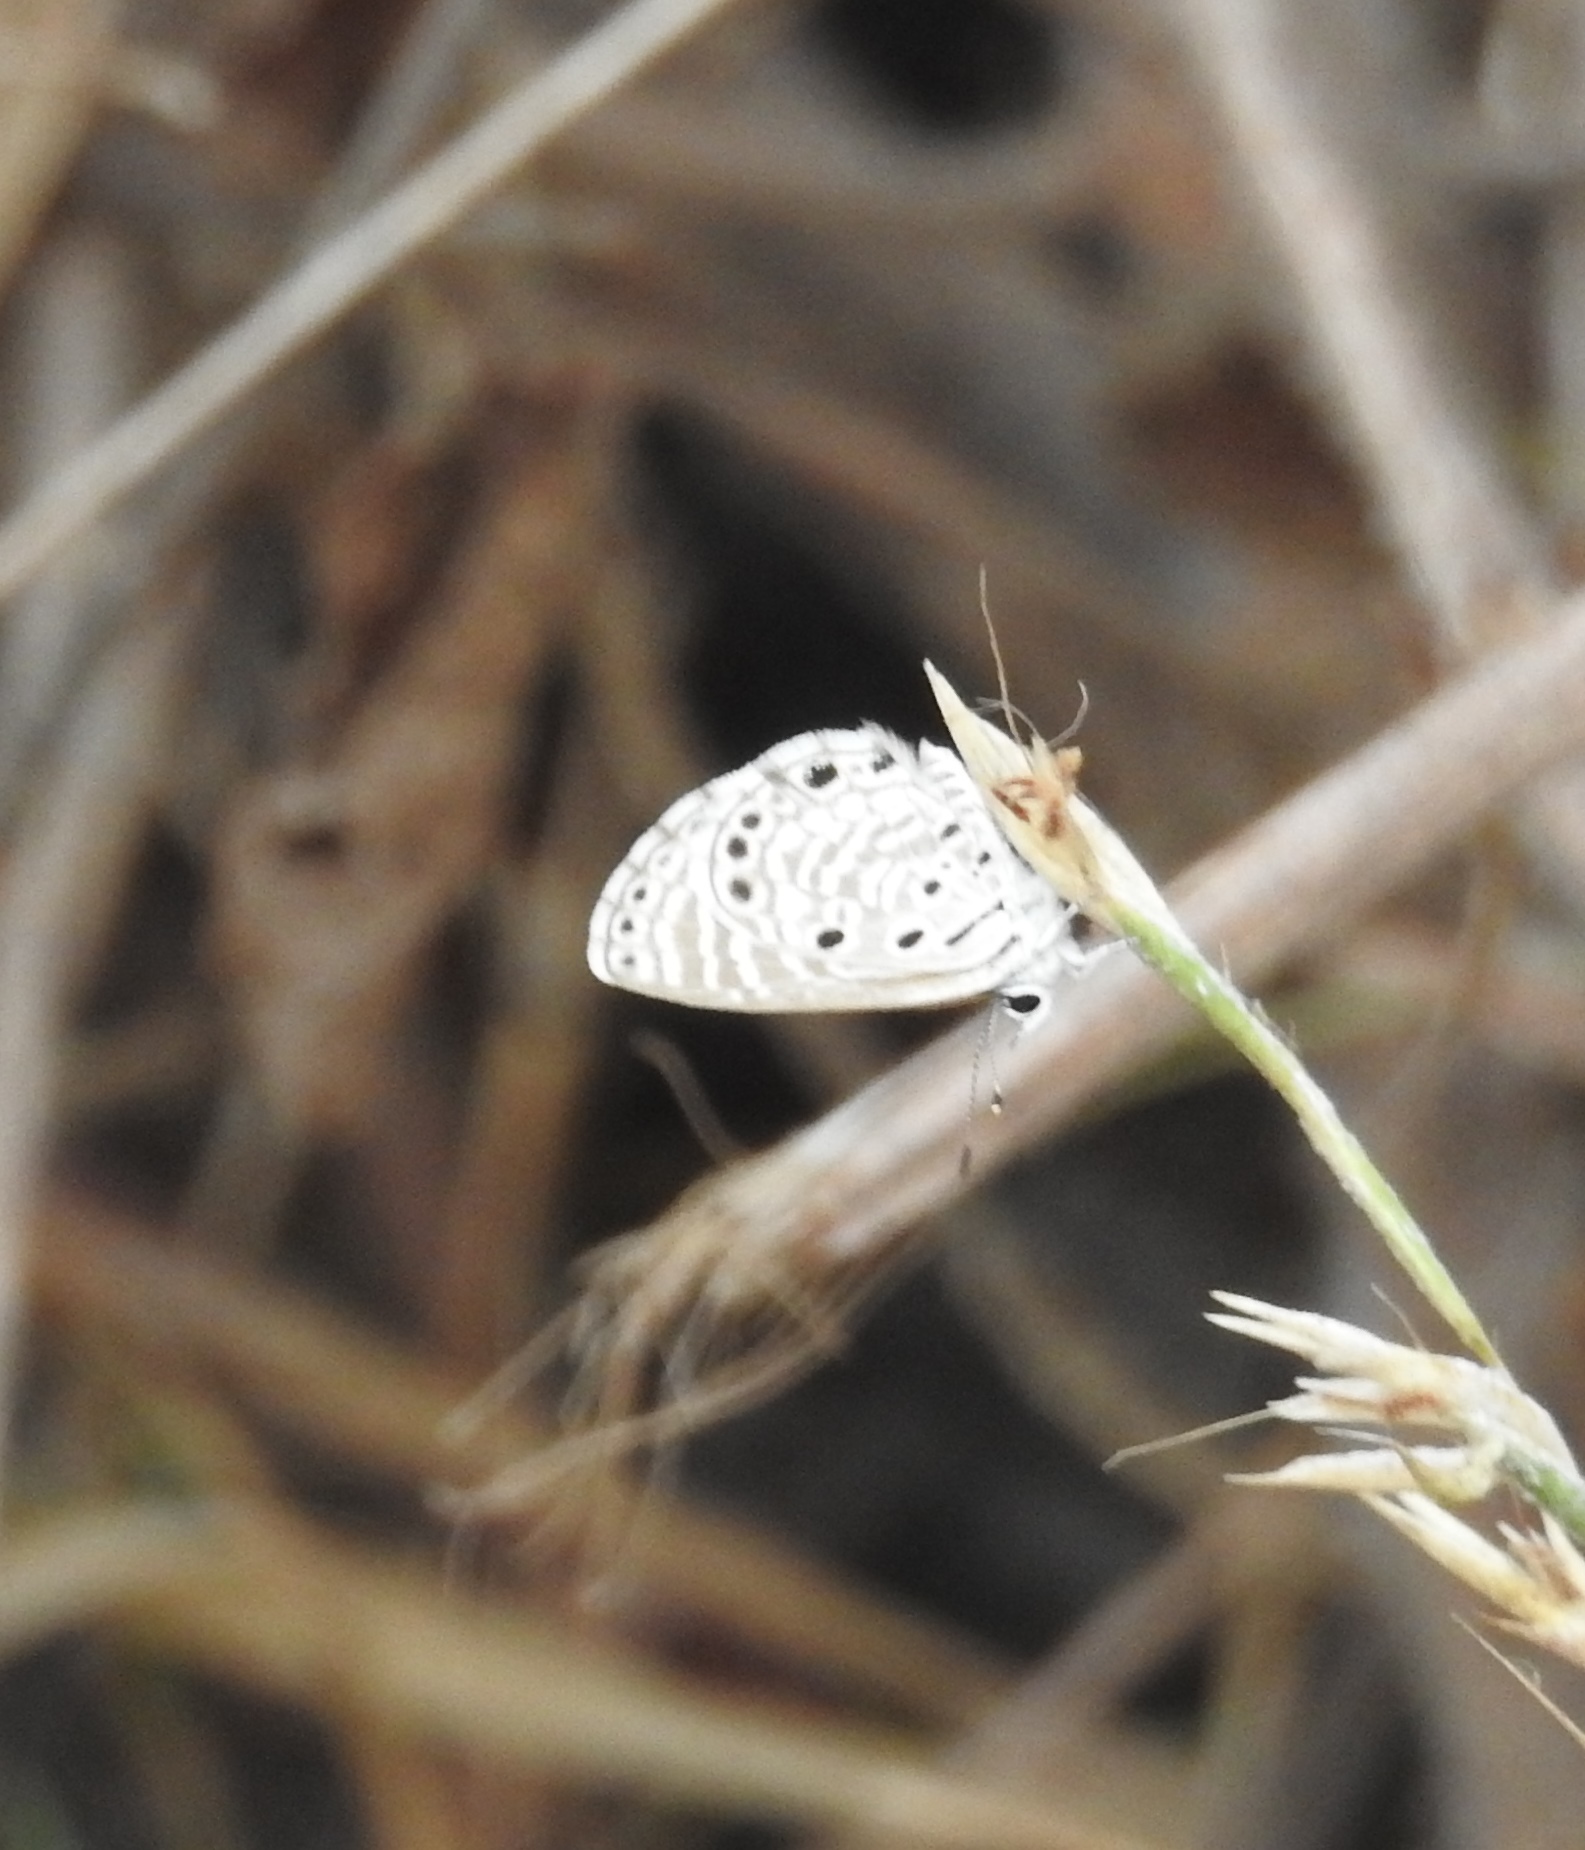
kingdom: Animalia
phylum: Arthropoda
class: Insecta
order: Lepidoptera
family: Lycaenidae
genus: Azanus
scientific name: Azanus jesous
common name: African babul blue
